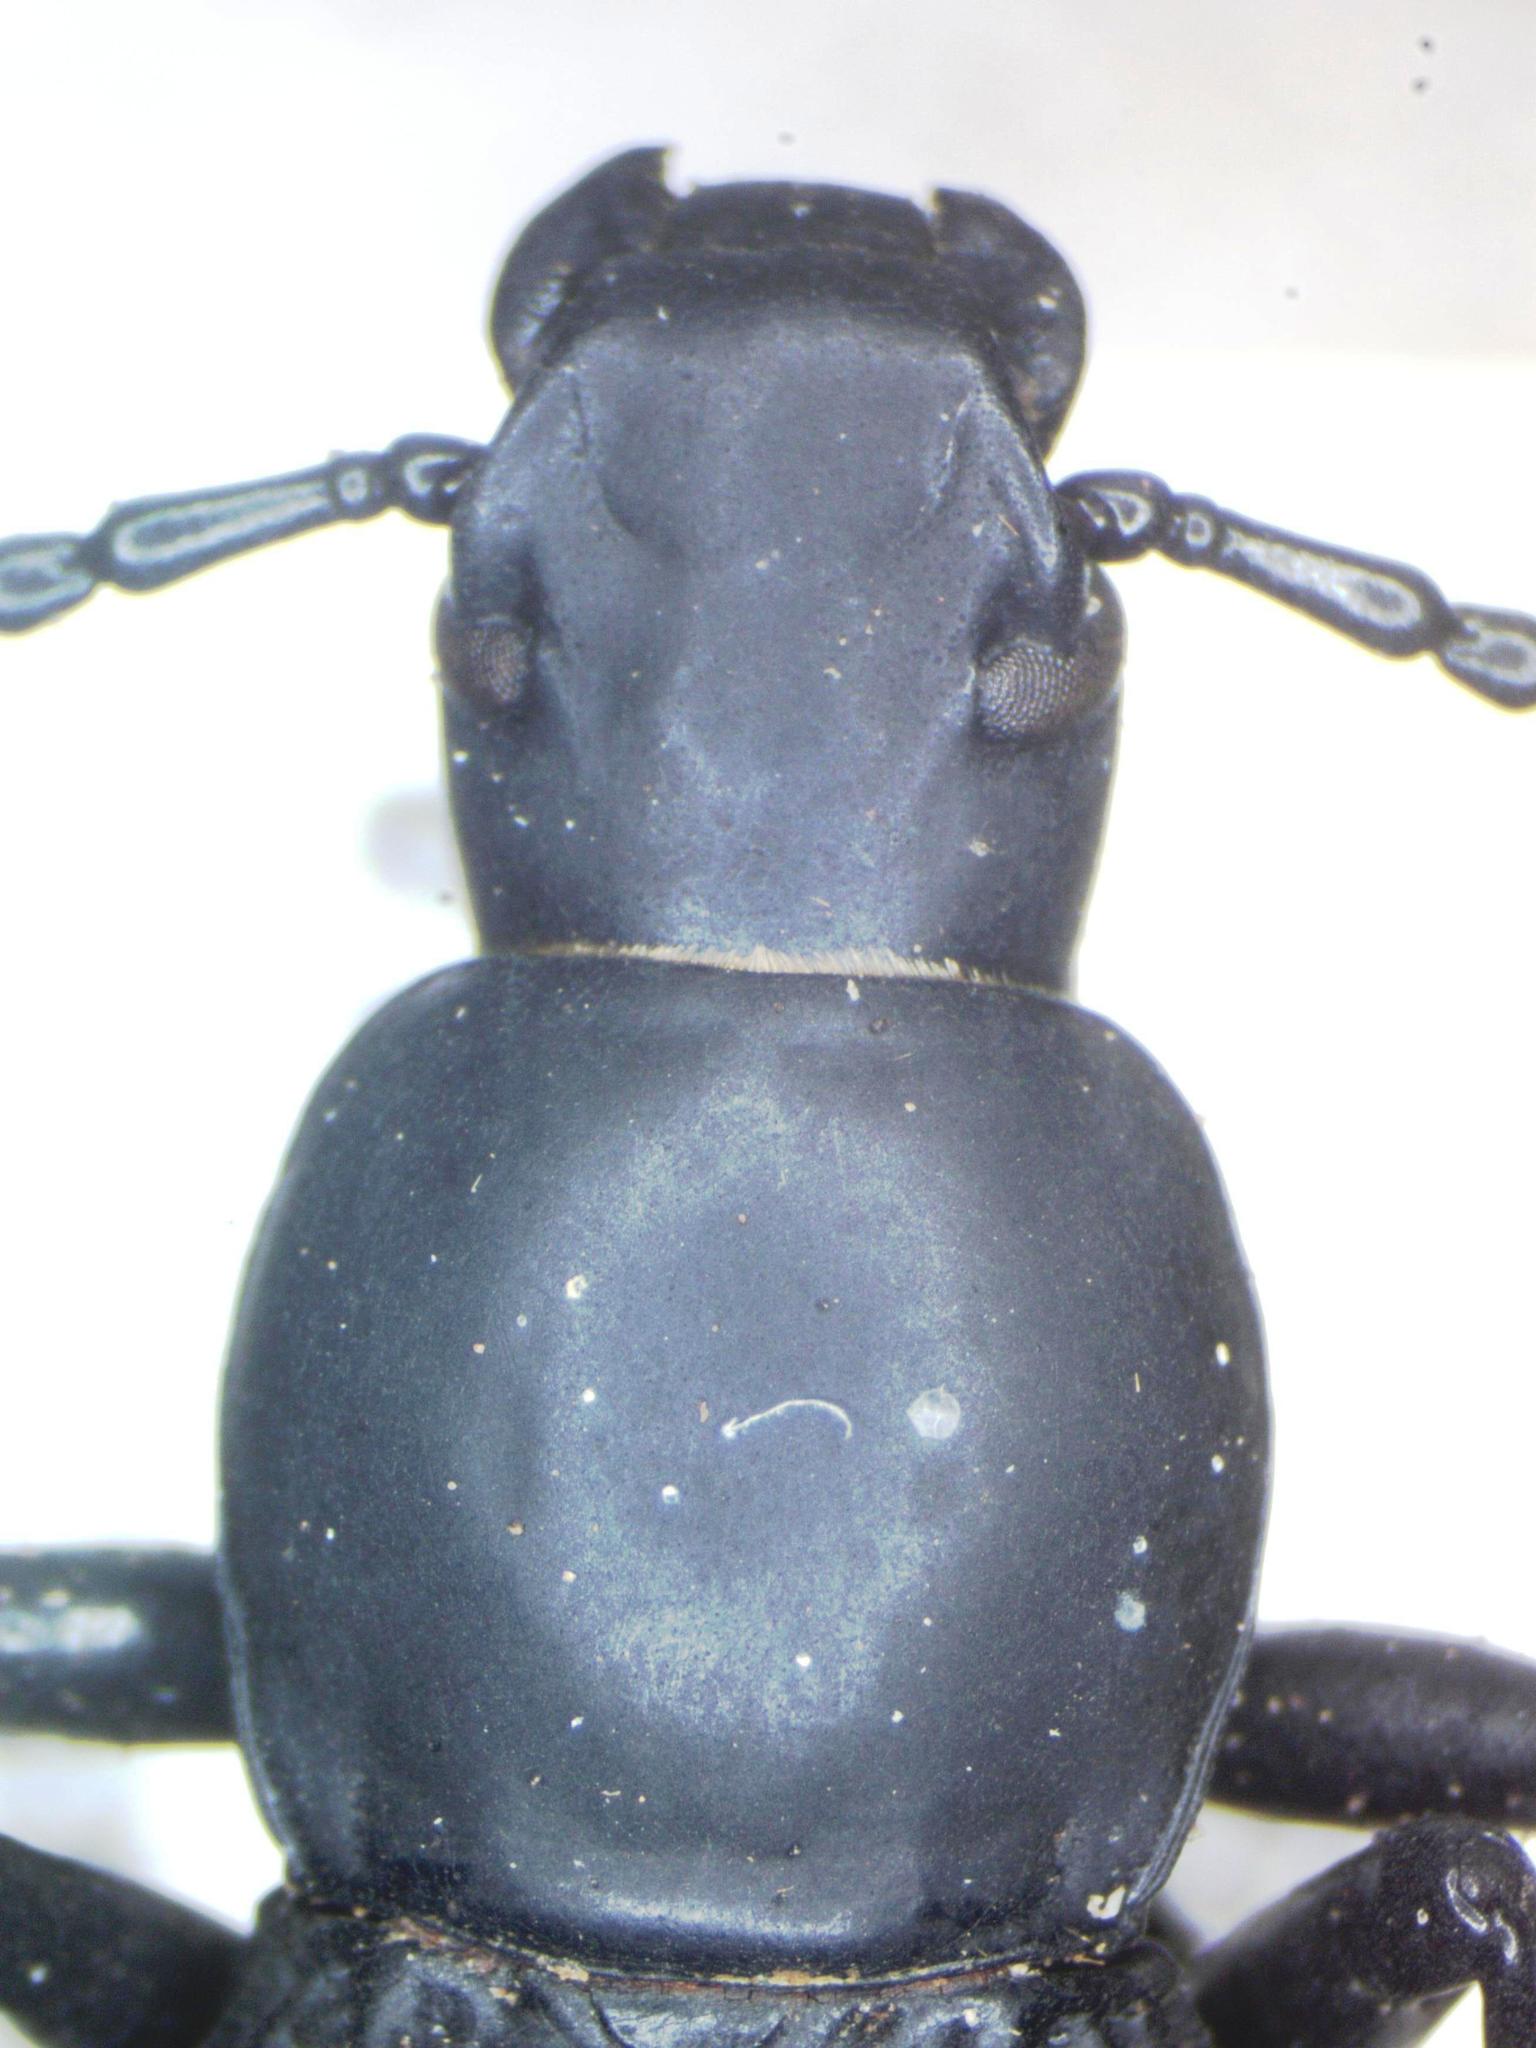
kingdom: Animalia
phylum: Arthropoda
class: Insecta
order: Coleoptera
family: Tenebrionidae
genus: Rhinandrus
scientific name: Rhinandrus elongatus
